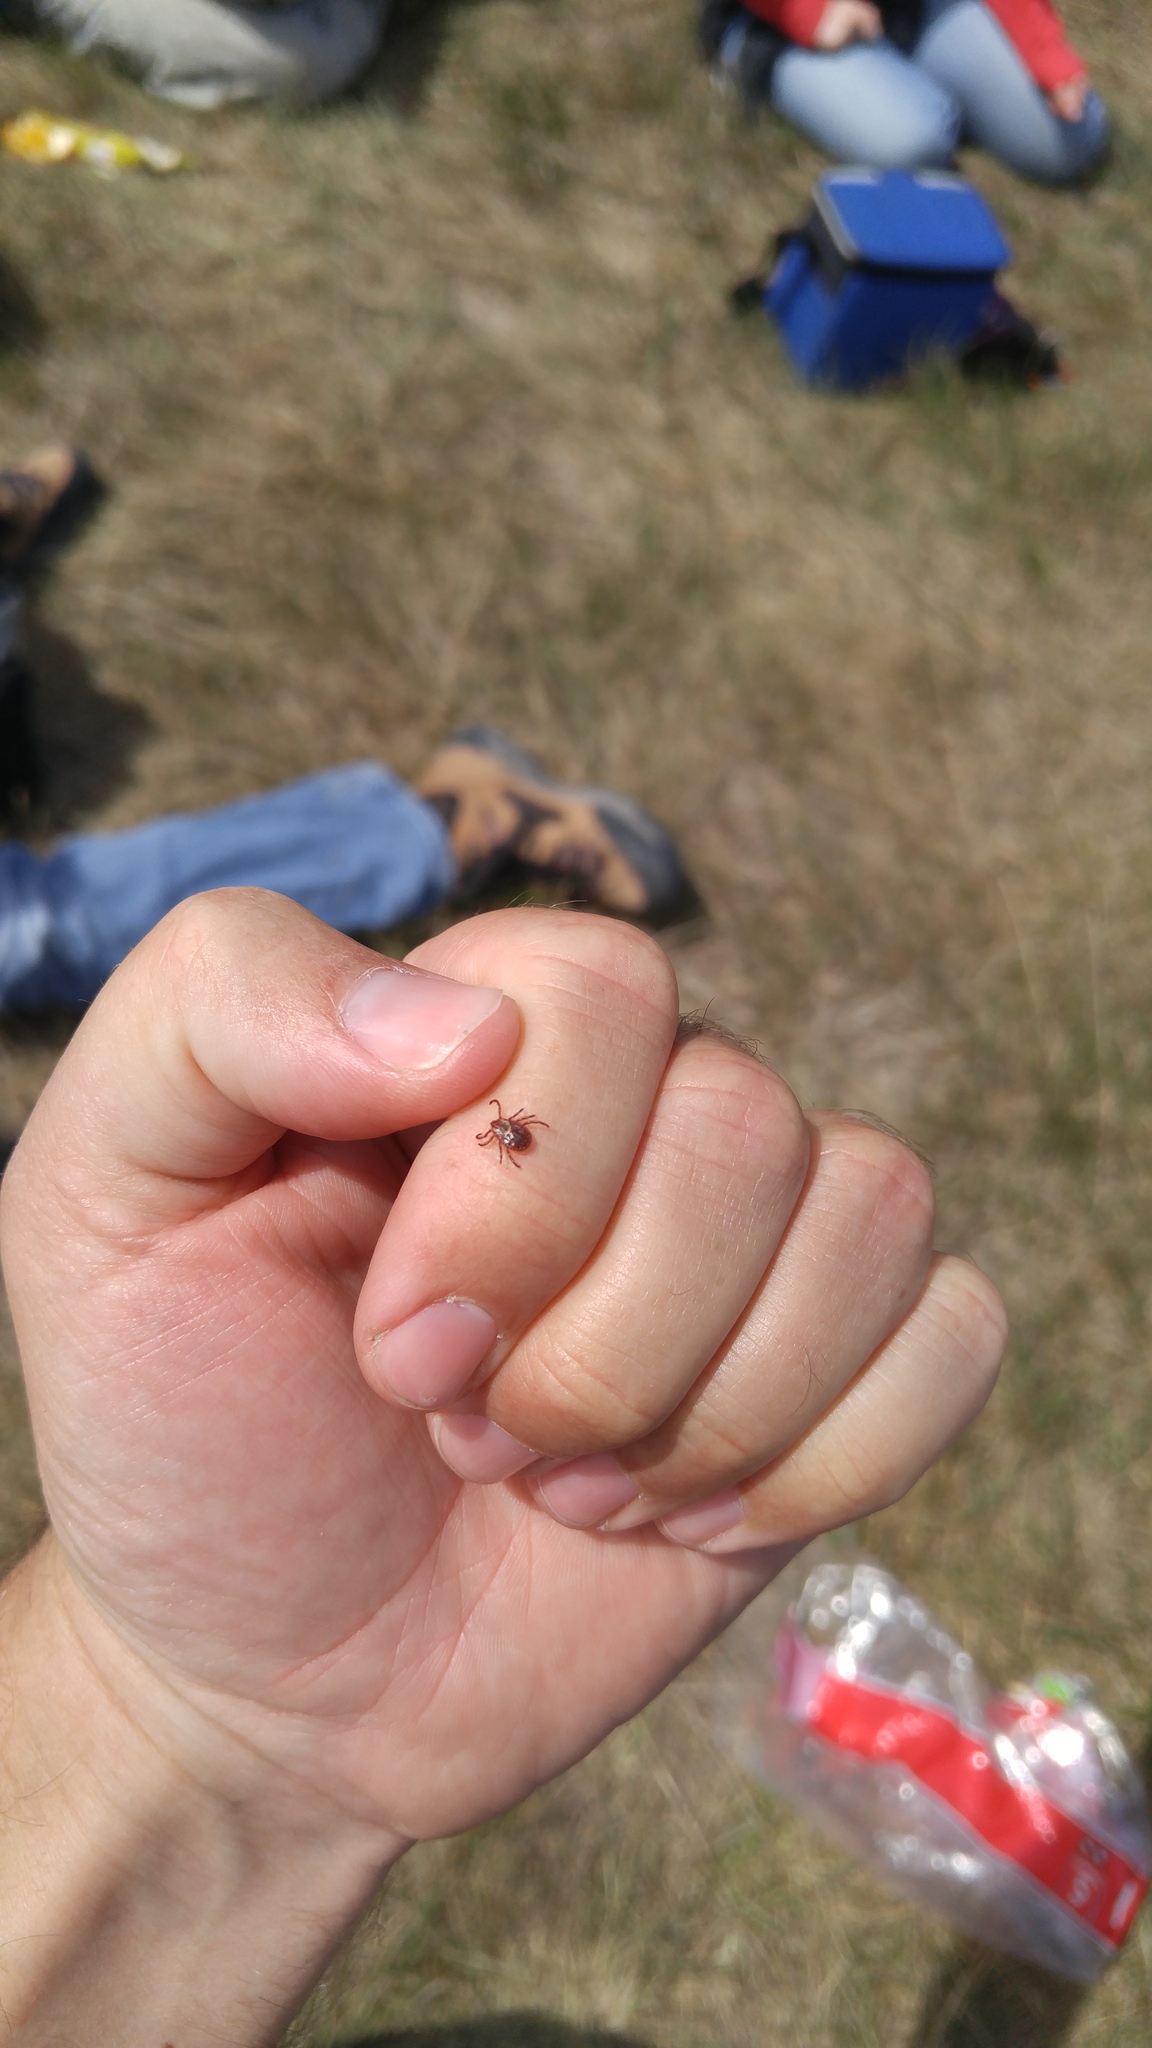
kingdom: Animalia
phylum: Arthropoda
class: Arachnida
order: Ixodida
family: Ixodidae
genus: Dermacentor
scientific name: Dermacentor variabilis
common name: American dog tick
